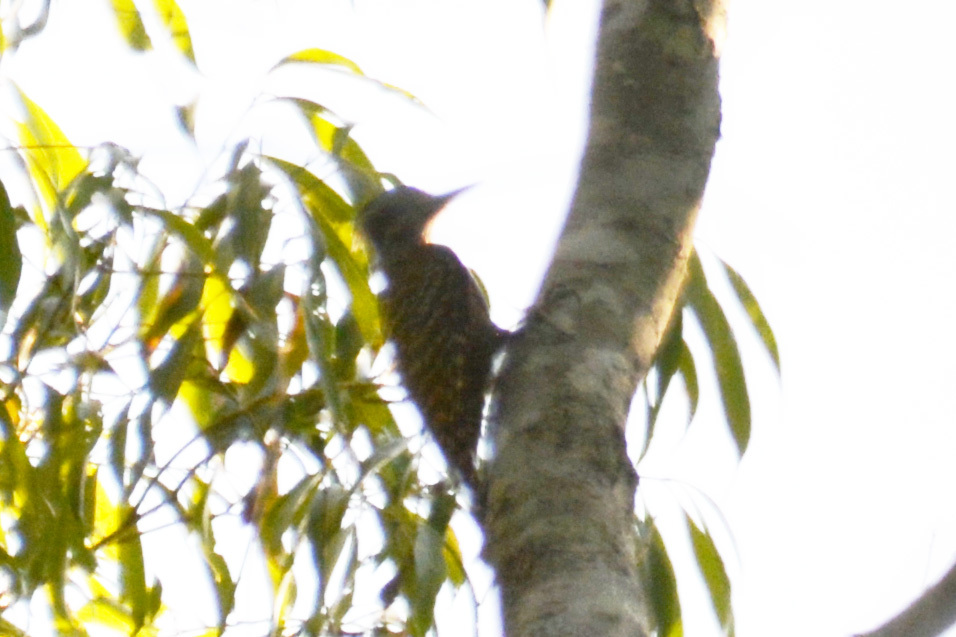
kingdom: Animalia
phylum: Chordata
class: Aves
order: Piciformes
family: Picidae
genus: Veniliornis
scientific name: Veniliornis spilogaster
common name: White-spotted woodpecker
